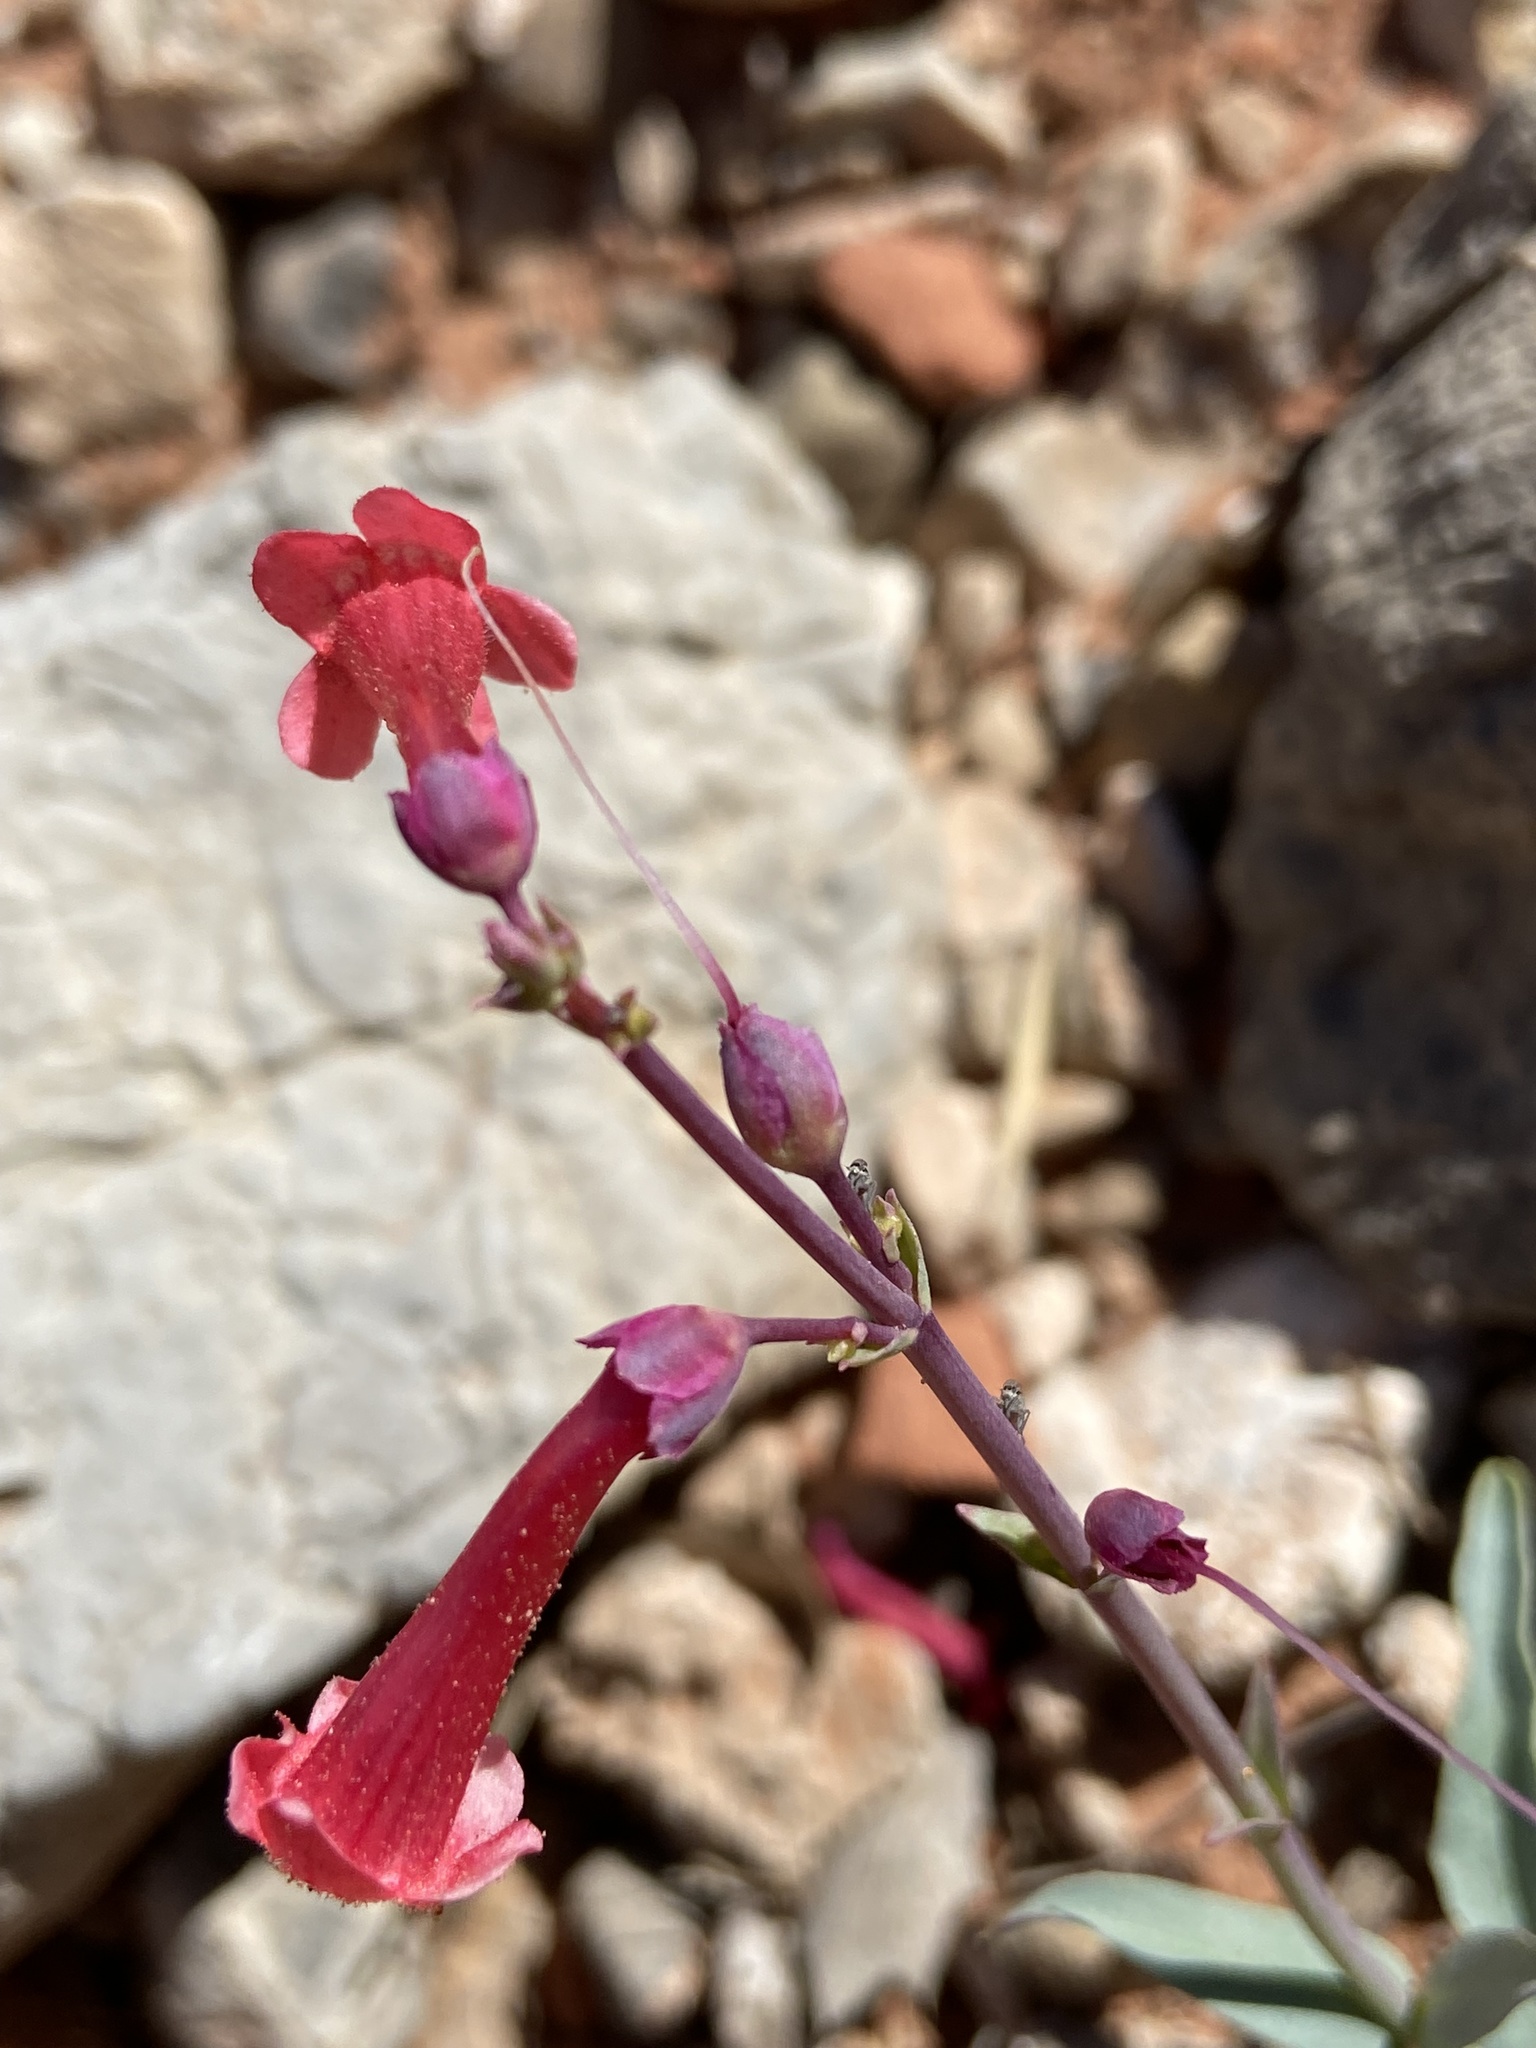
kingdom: Plantae
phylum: Tracheophyta
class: Magnoliopsida
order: Lamiales
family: Plantaginaceae
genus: Penstemon
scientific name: Penstemon utahensis
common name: Utah penstemon
